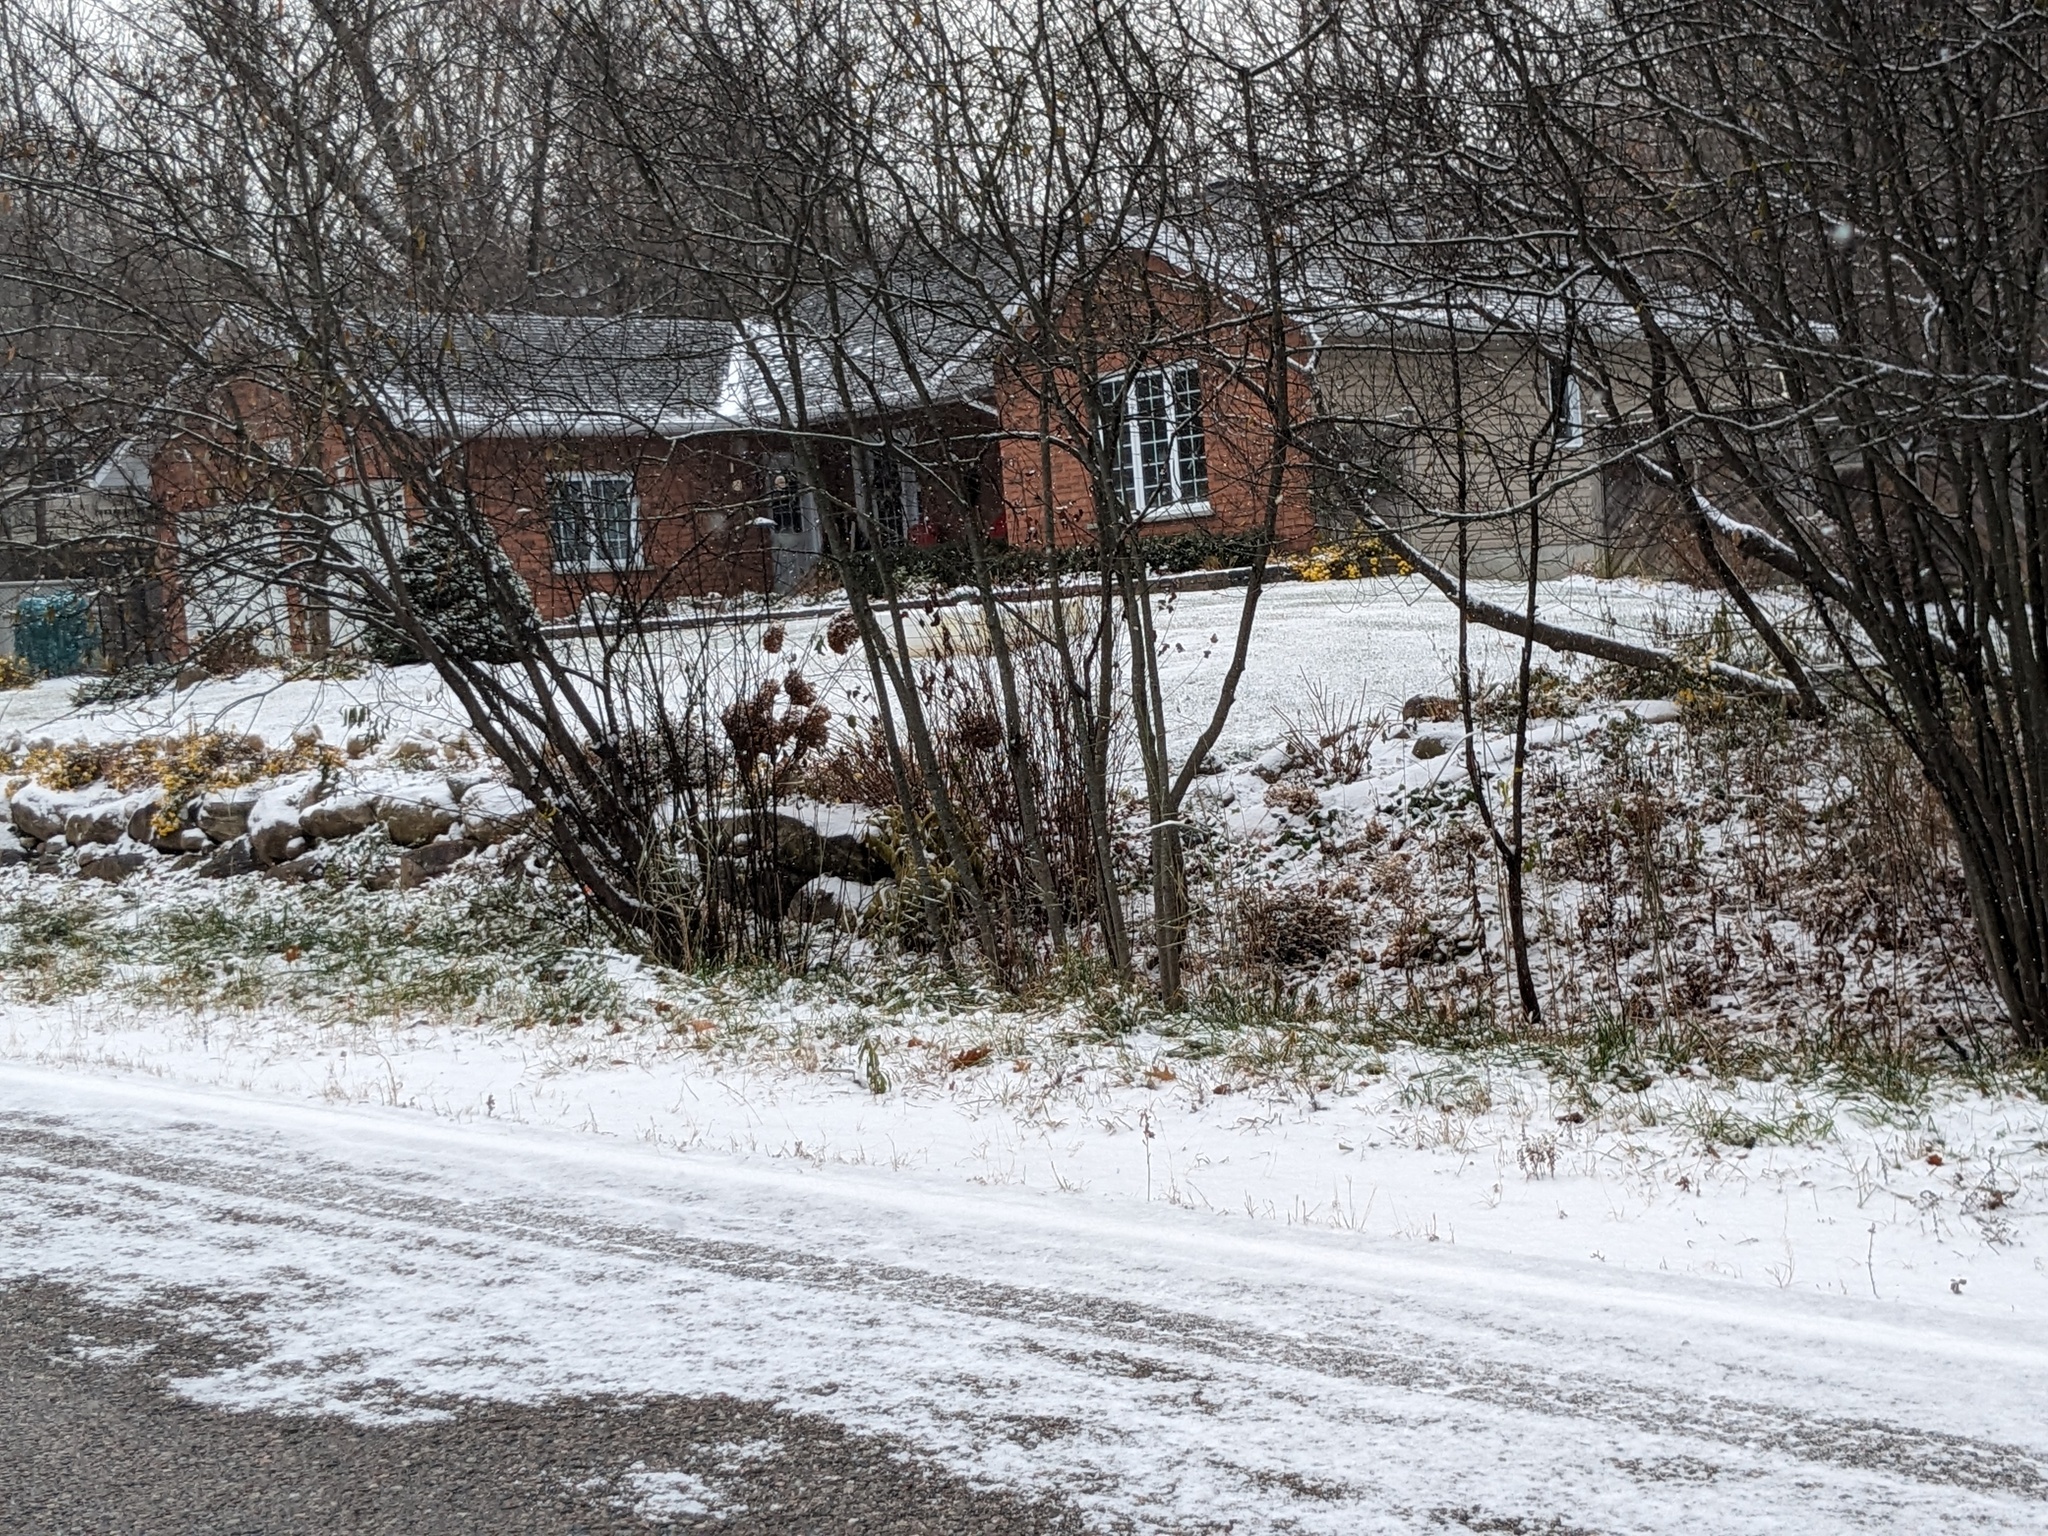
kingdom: Plantae
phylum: Tracheophyta
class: Liliopsida
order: Poales
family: Poaceae
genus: Phragmites
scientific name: Phragmites australis
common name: Common reed
